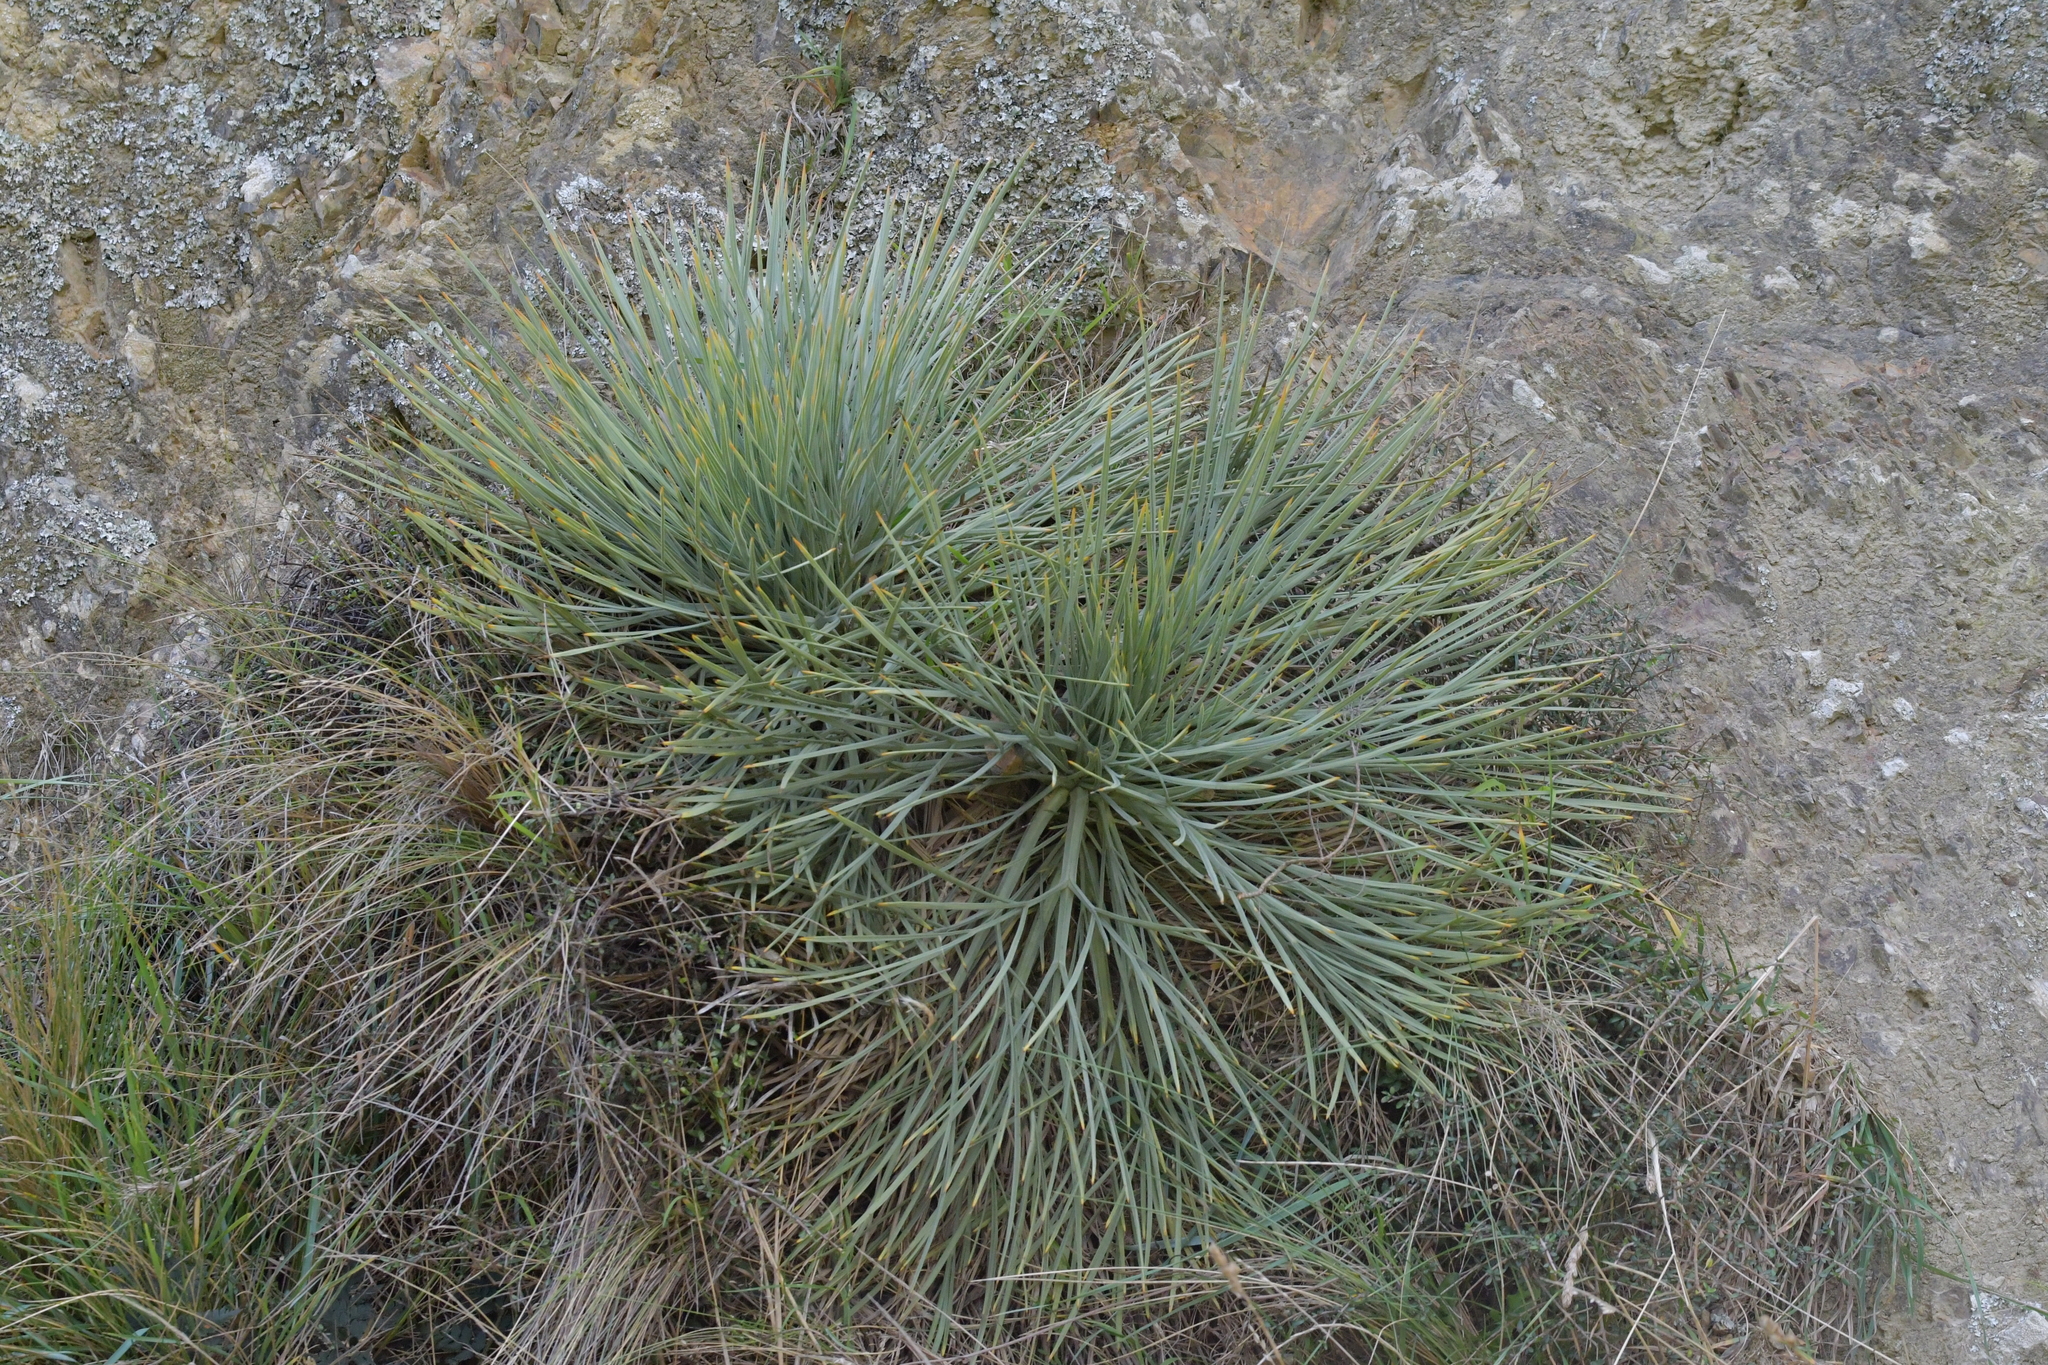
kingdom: Plantae
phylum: Tracheophyta
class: Magnoliopsida
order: Apiales
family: Apiaceae
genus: Aciphylla
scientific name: Aciphylla squarrosa
